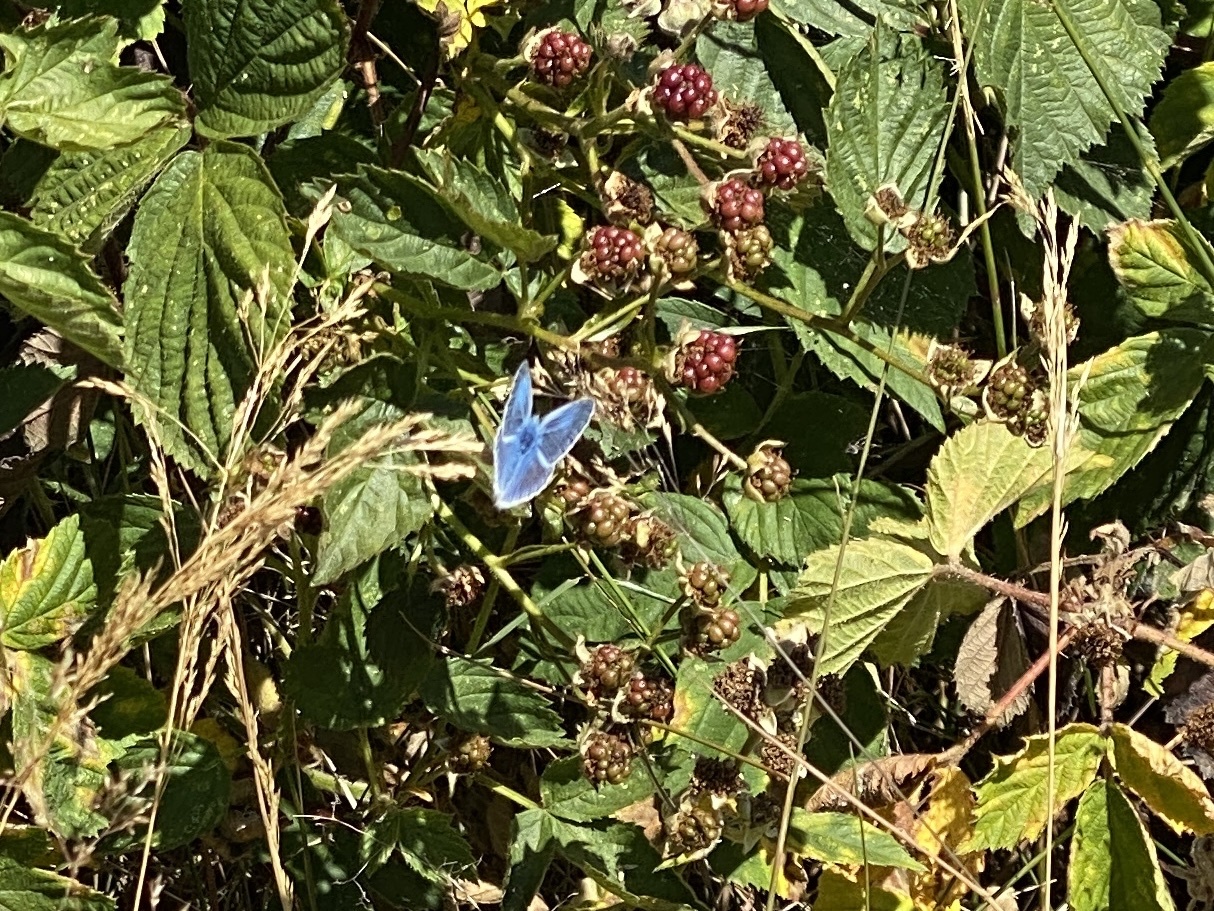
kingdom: Animalia
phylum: Arthropoda
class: Insecta
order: Lepidoptera
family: Lycaenidae
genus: Polyommatus
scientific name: Polyommatus icarus
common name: Common blue
